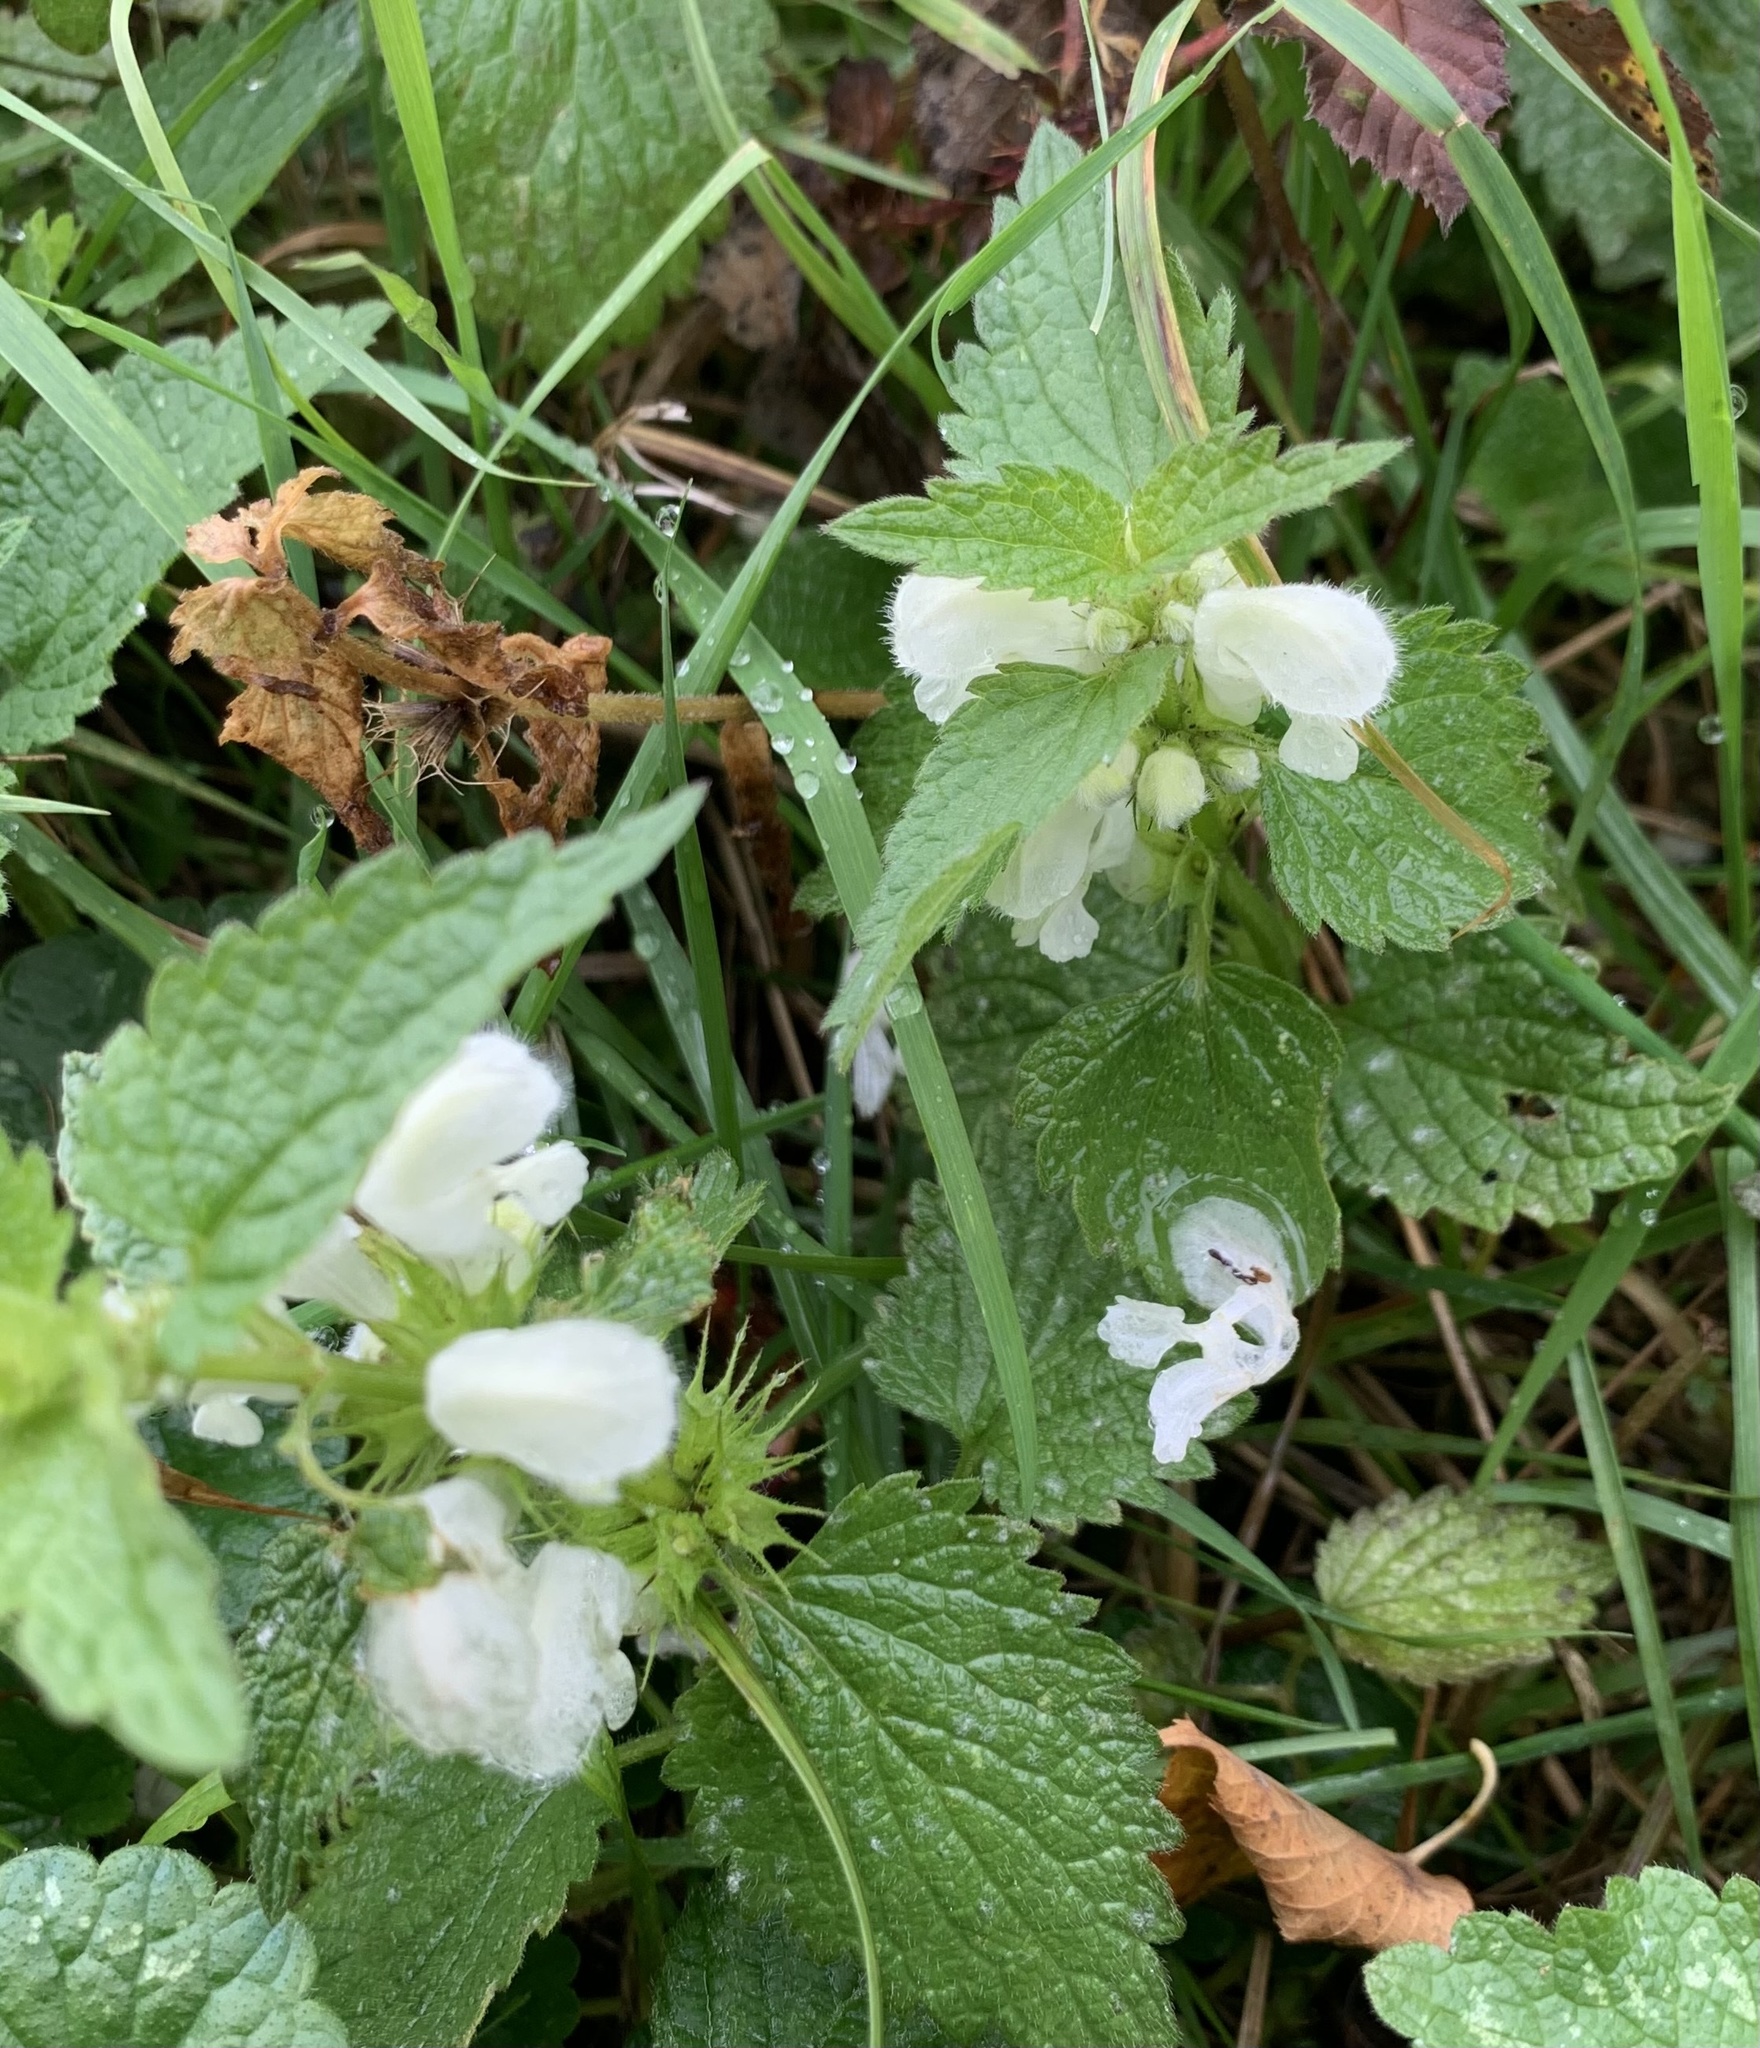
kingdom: Plantae
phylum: Tracheophyta
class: Magnoliopsida
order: Lamiales
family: Lamiaceae
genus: Lamium
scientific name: Lamium album
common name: White dead-nettle
